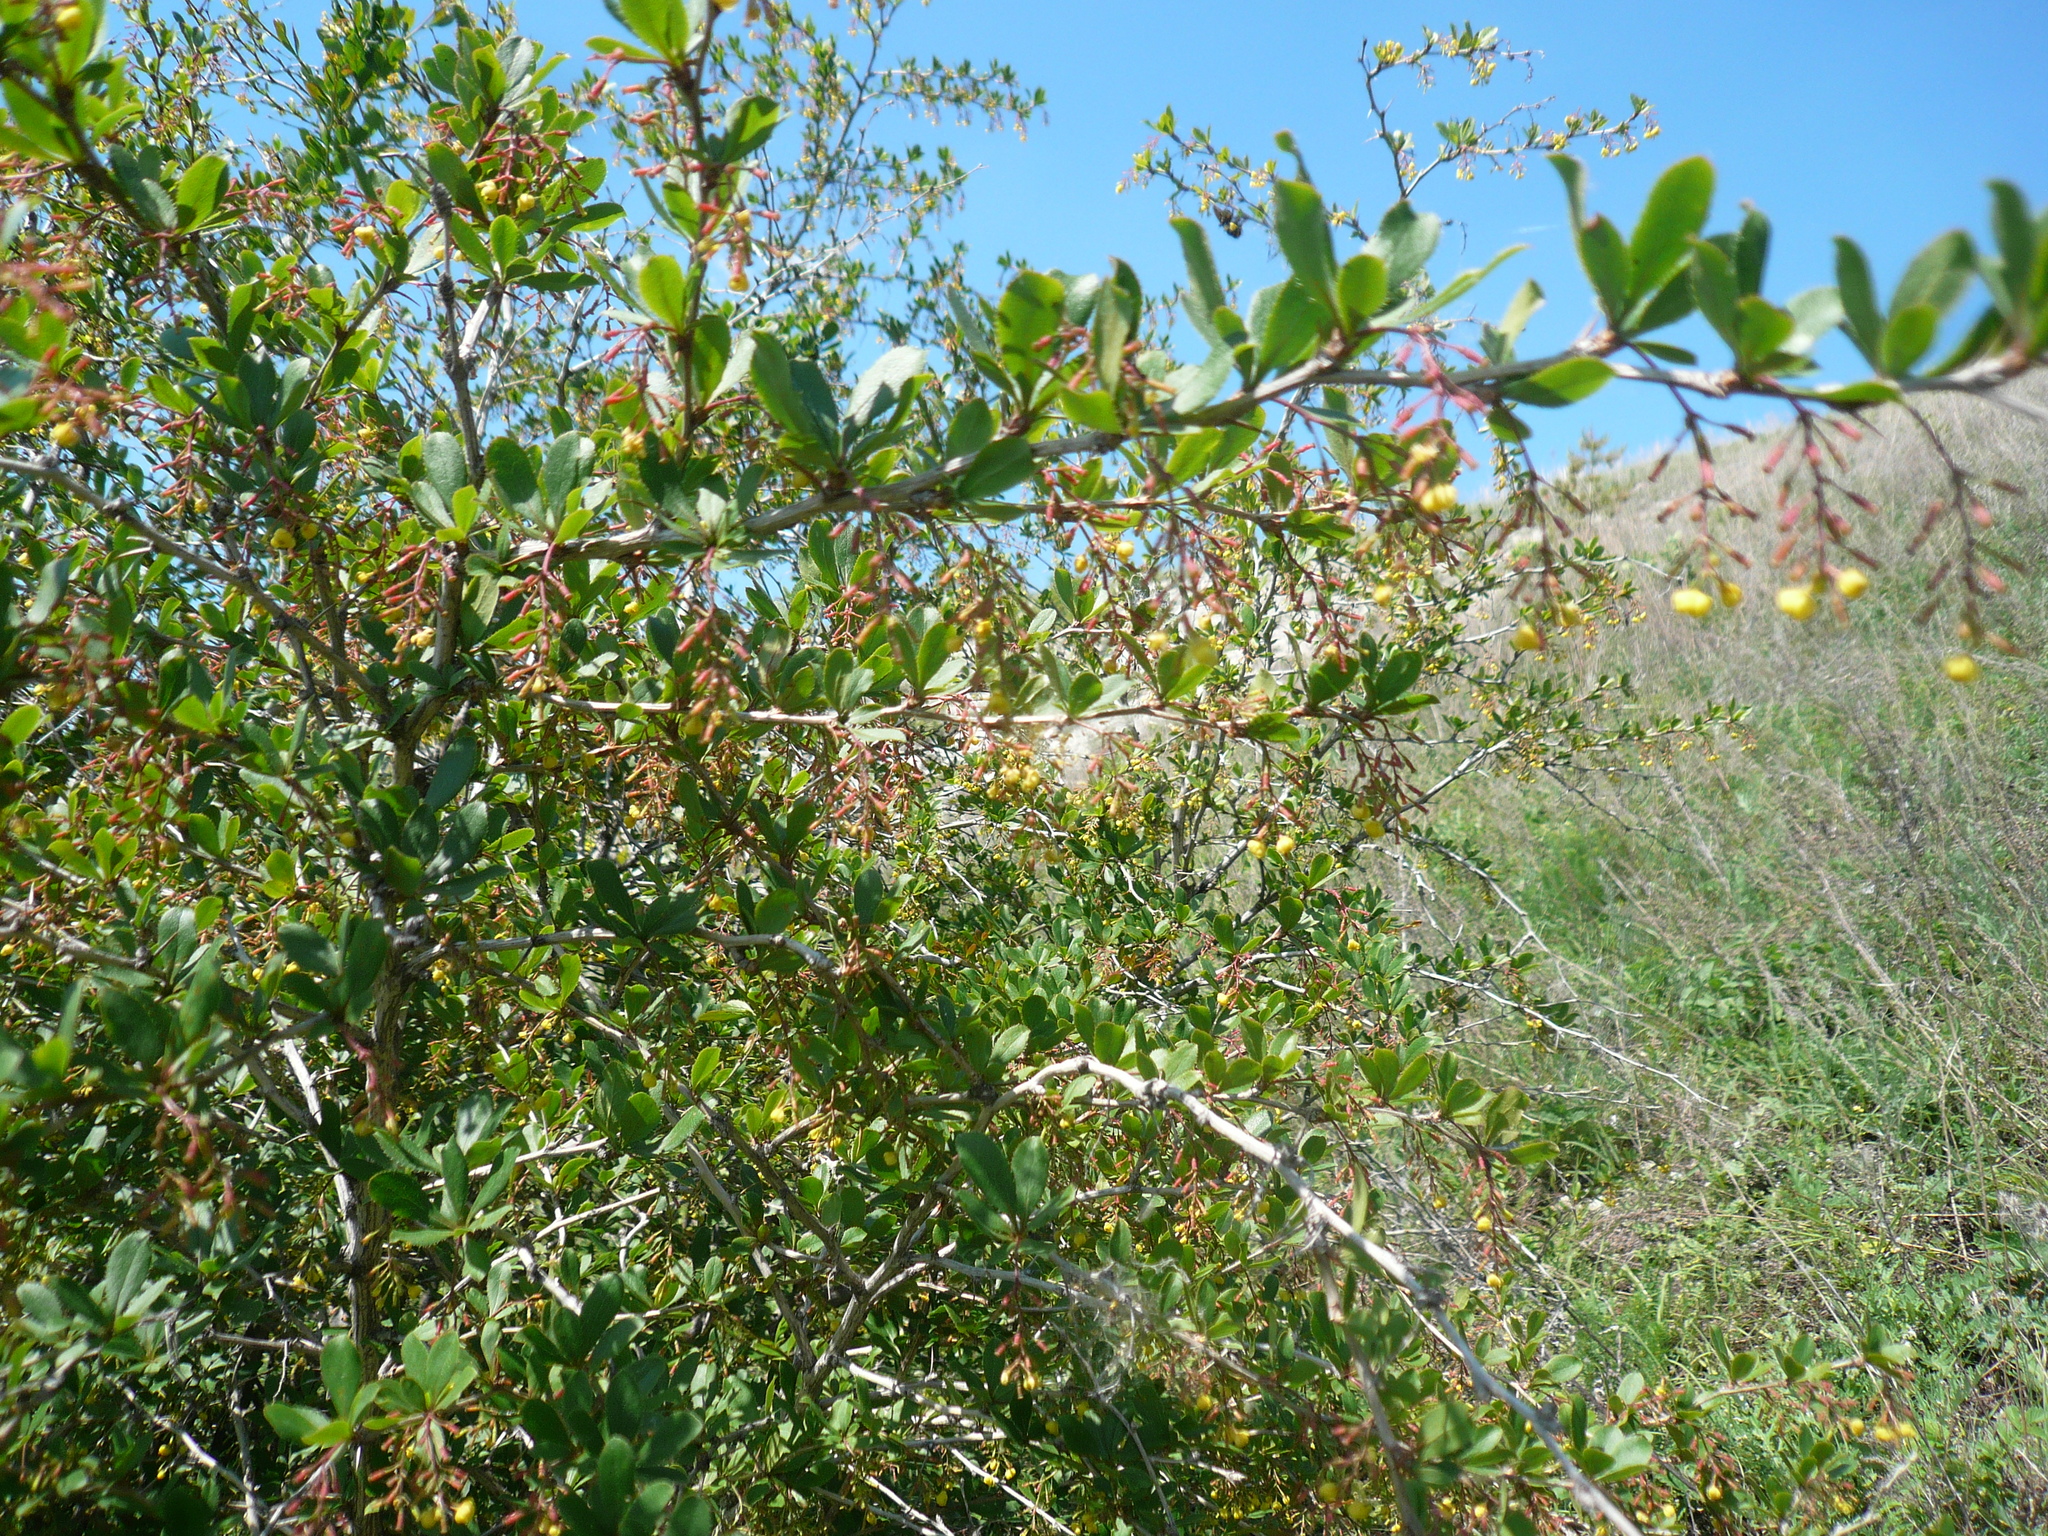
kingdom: Plantae
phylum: Tracheophyta
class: Magnoliopsida
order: Ranunculales
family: Berberidaceae
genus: Berberis
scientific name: Berberis vulgaris
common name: Barberry
